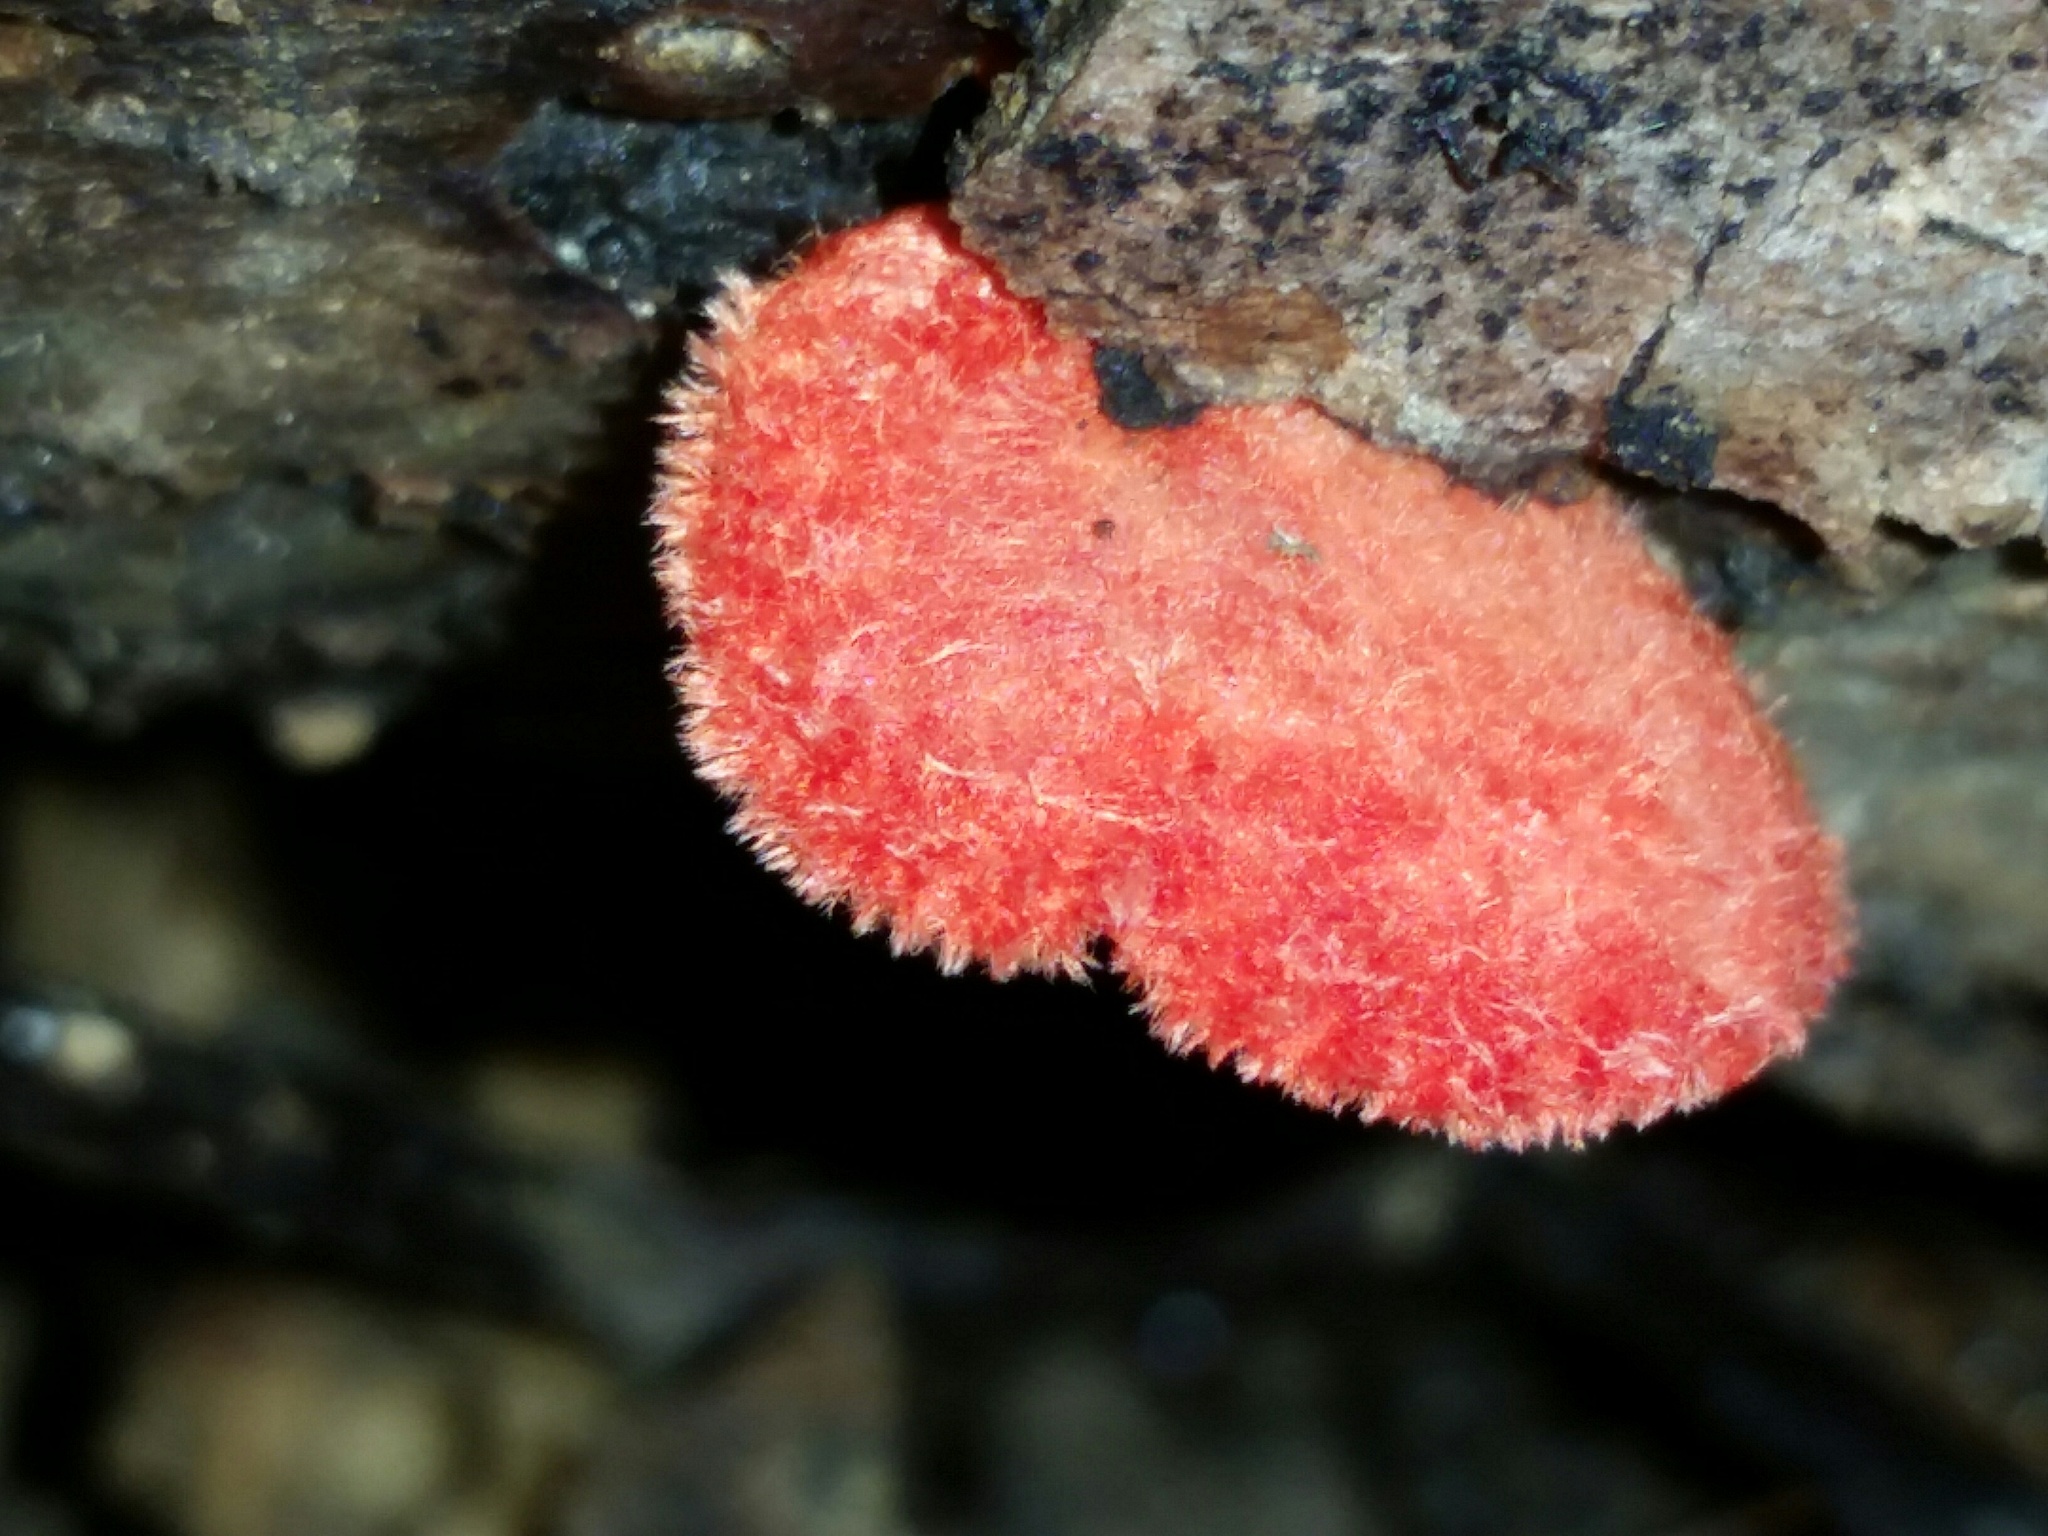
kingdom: Fungi
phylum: Basidiomycota
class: Agaricomycetes
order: Agaricales
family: Crepidotaceae
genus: Crepidotus
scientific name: Crepidotus cinnabarinus
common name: Cinnabar oysterling
